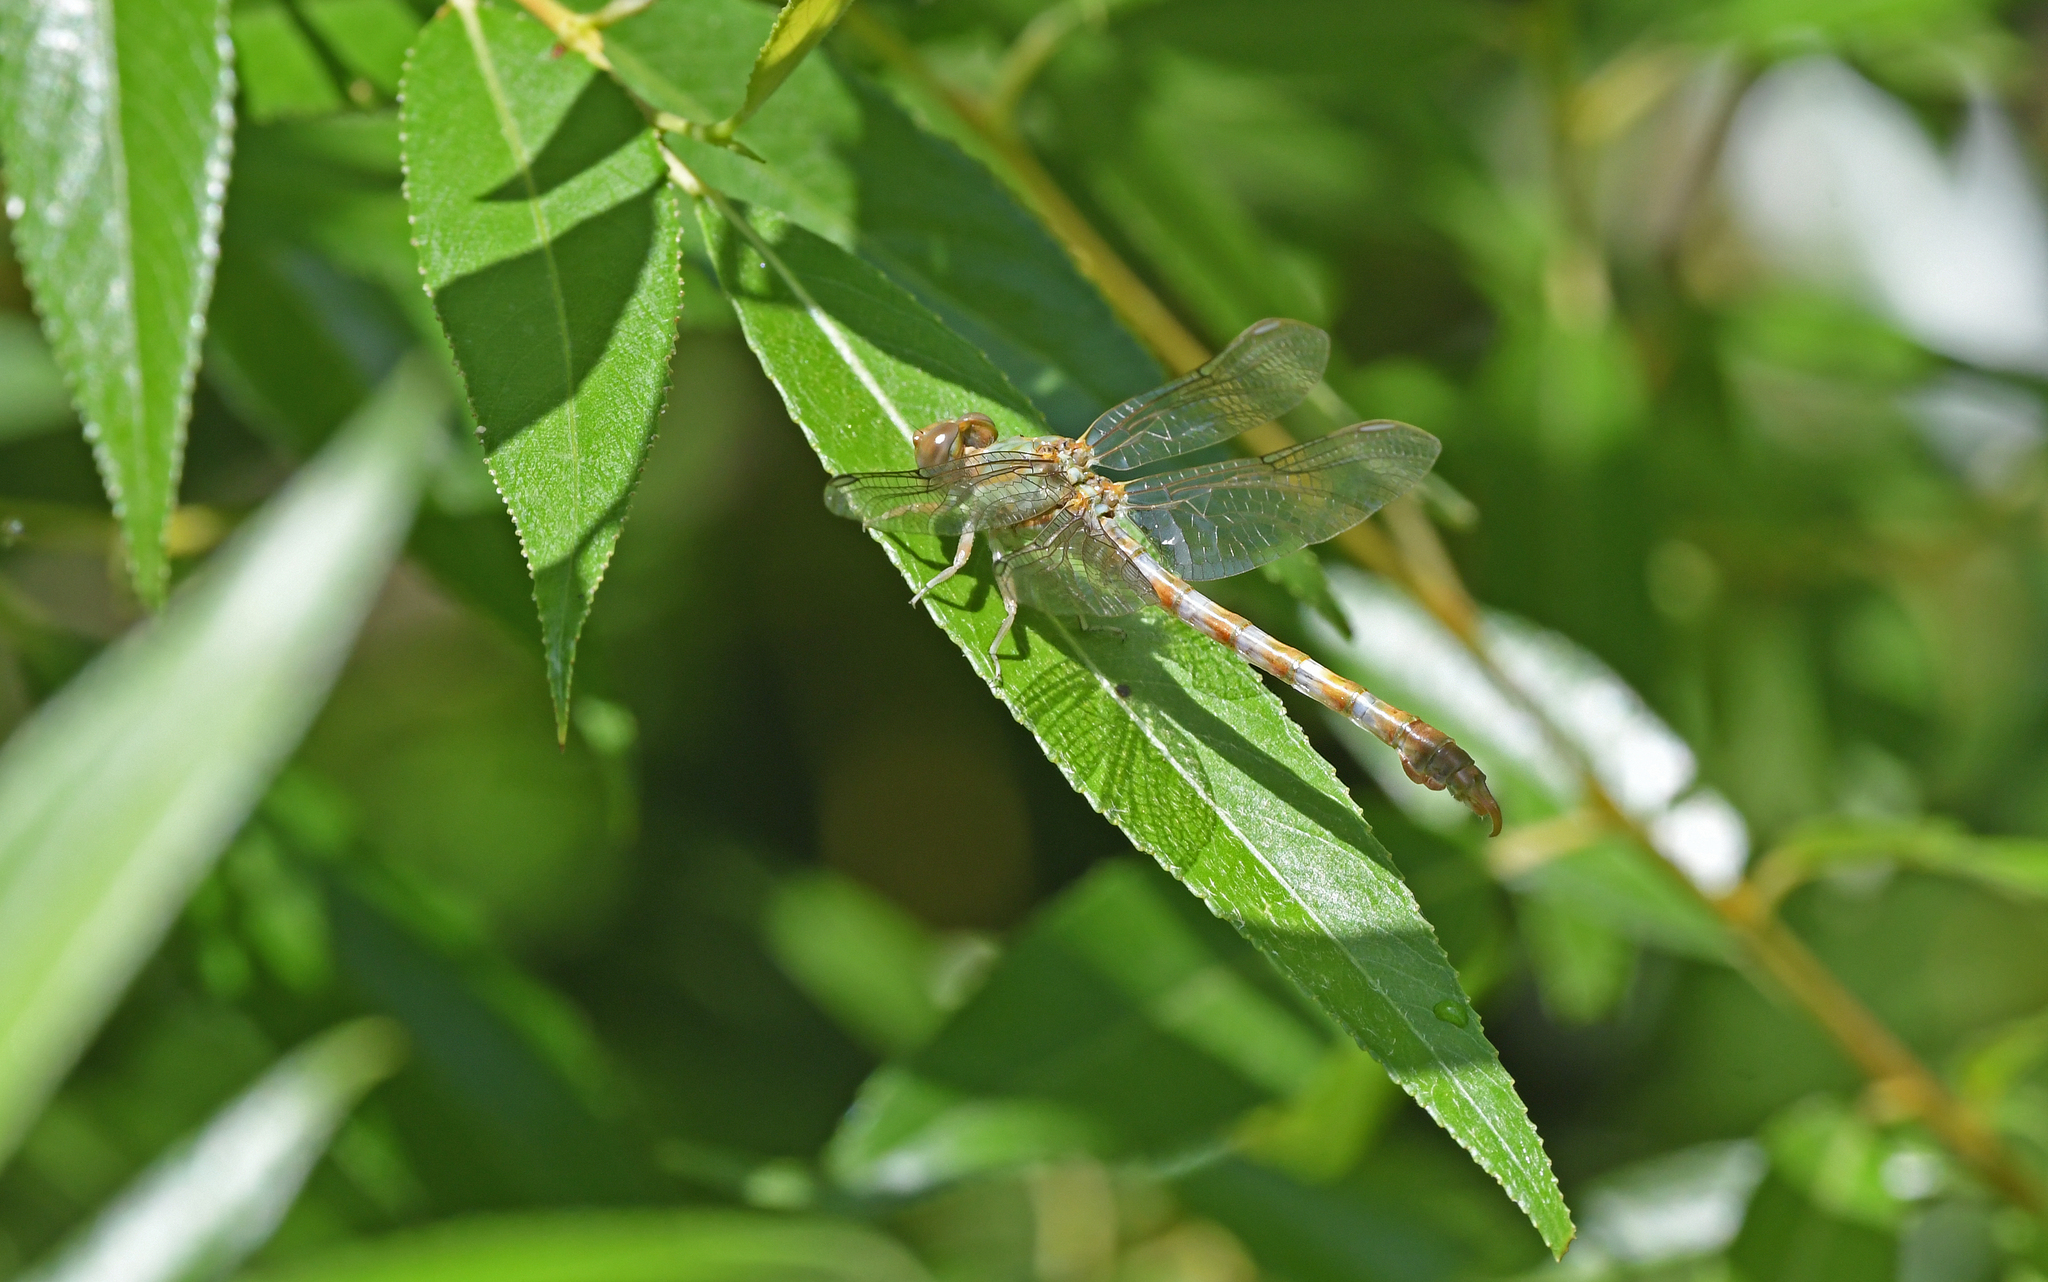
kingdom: Animalia
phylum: Arthropoda
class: Insecta
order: Odonata
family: Gomphidae
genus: Paragomphus
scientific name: Paragomphus genei
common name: Common hooktail
